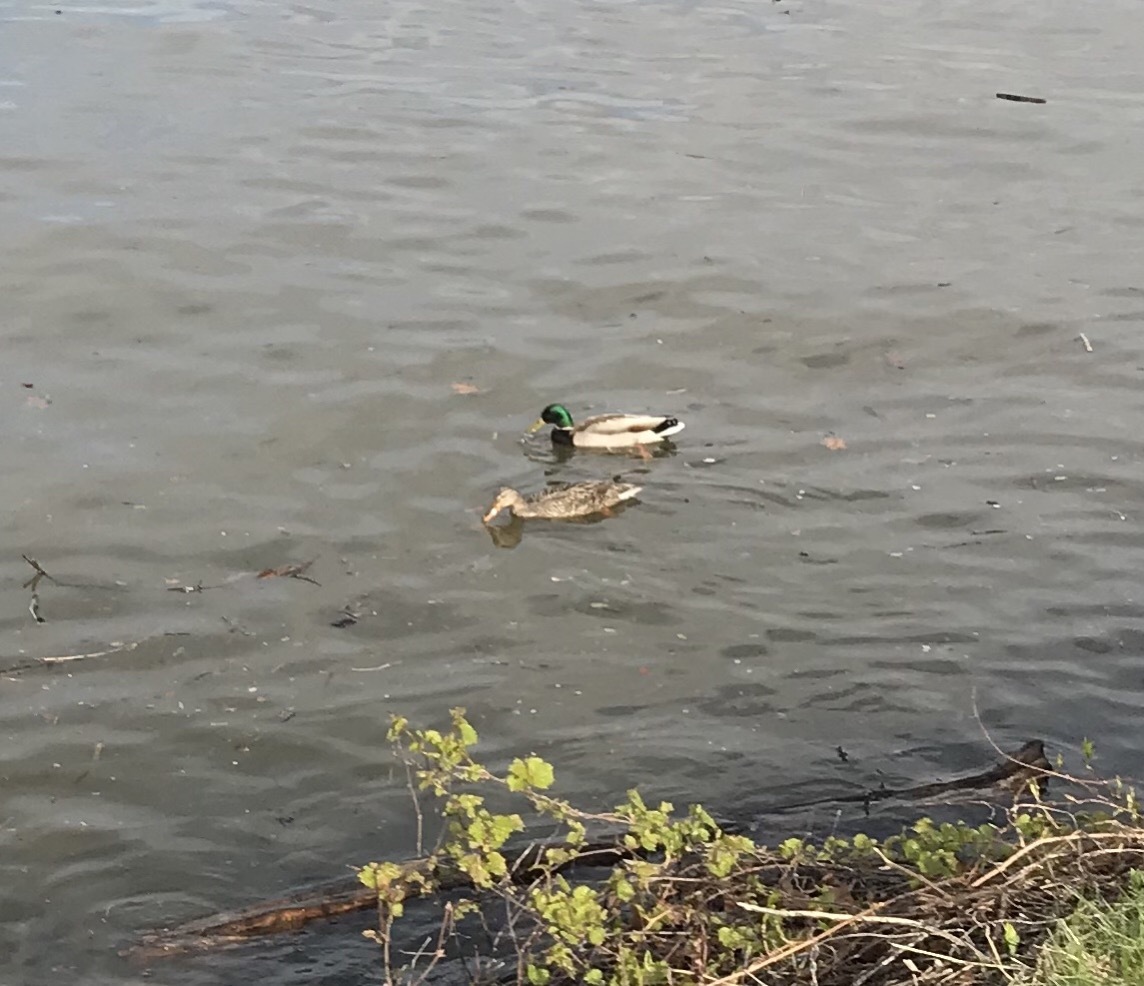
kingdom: Animalia
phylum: Chordata
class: Aves
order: Anseriformes
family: Anatidae
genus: Anas
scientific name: Anas platyrhynchos
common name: Mallard
